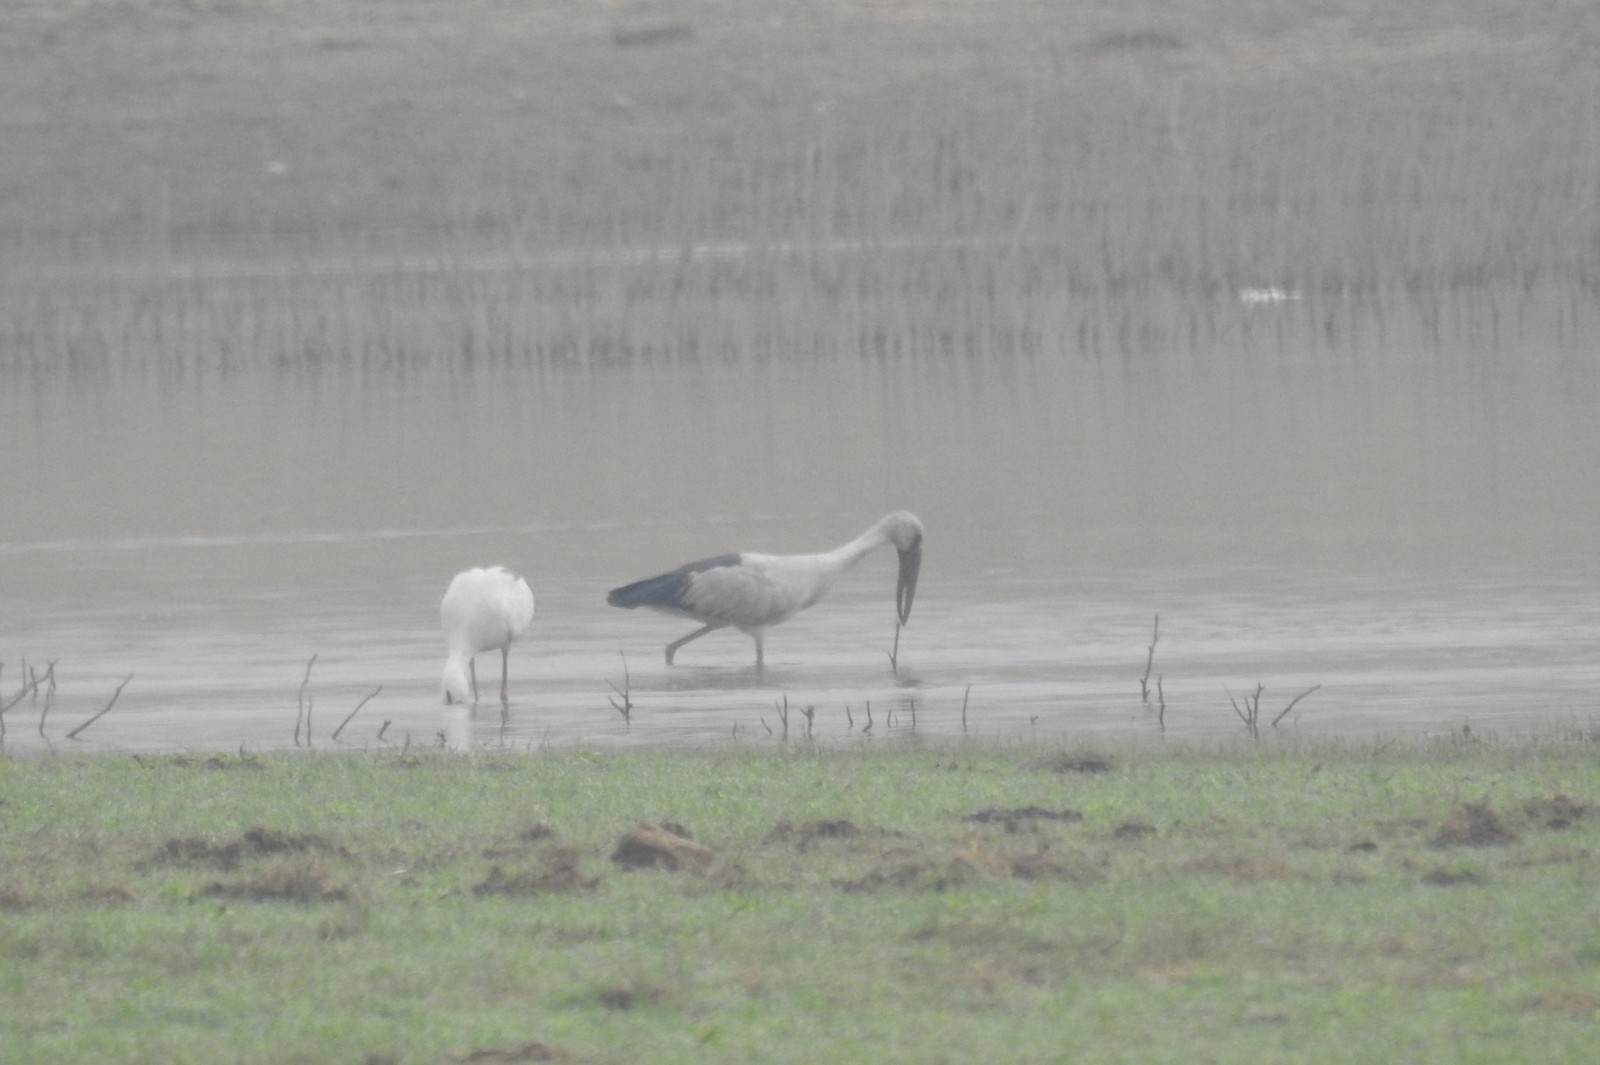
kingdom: Animalia
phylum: Chordata
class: Aves
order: Ciconiiformes
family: Ciconiidae
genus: Anastomus
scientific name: Anastomus oscitans
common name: Asian openbill
